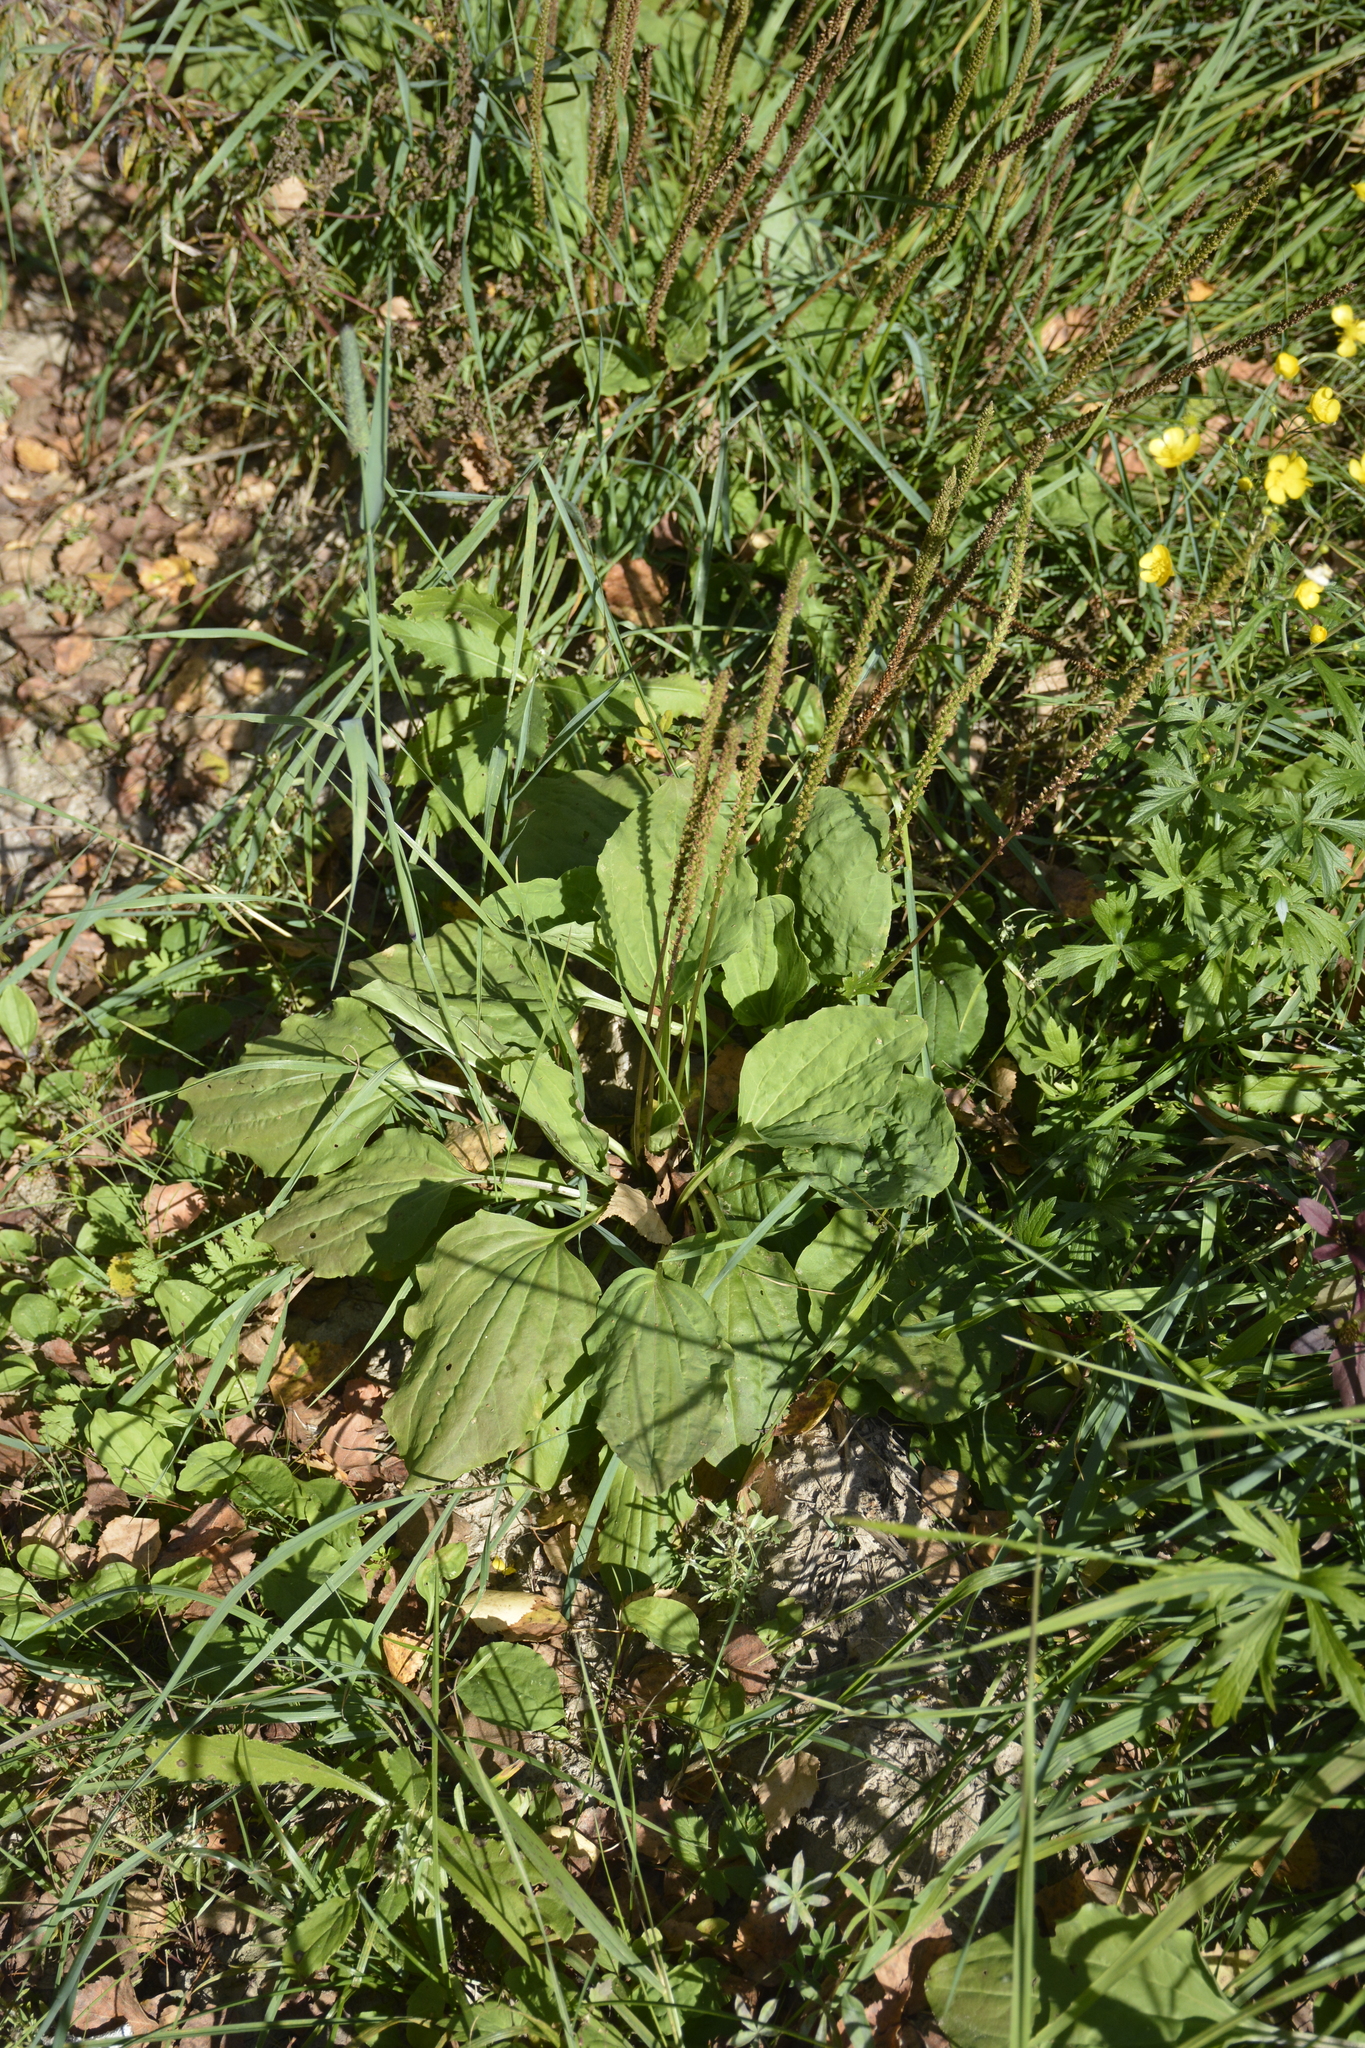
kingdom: Plantae
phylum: Tracheophyta
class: Magnoliopsida
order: Lamiales
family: Plantaginaceae
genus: Plantago
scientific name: Plantago major
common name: Common plantain
